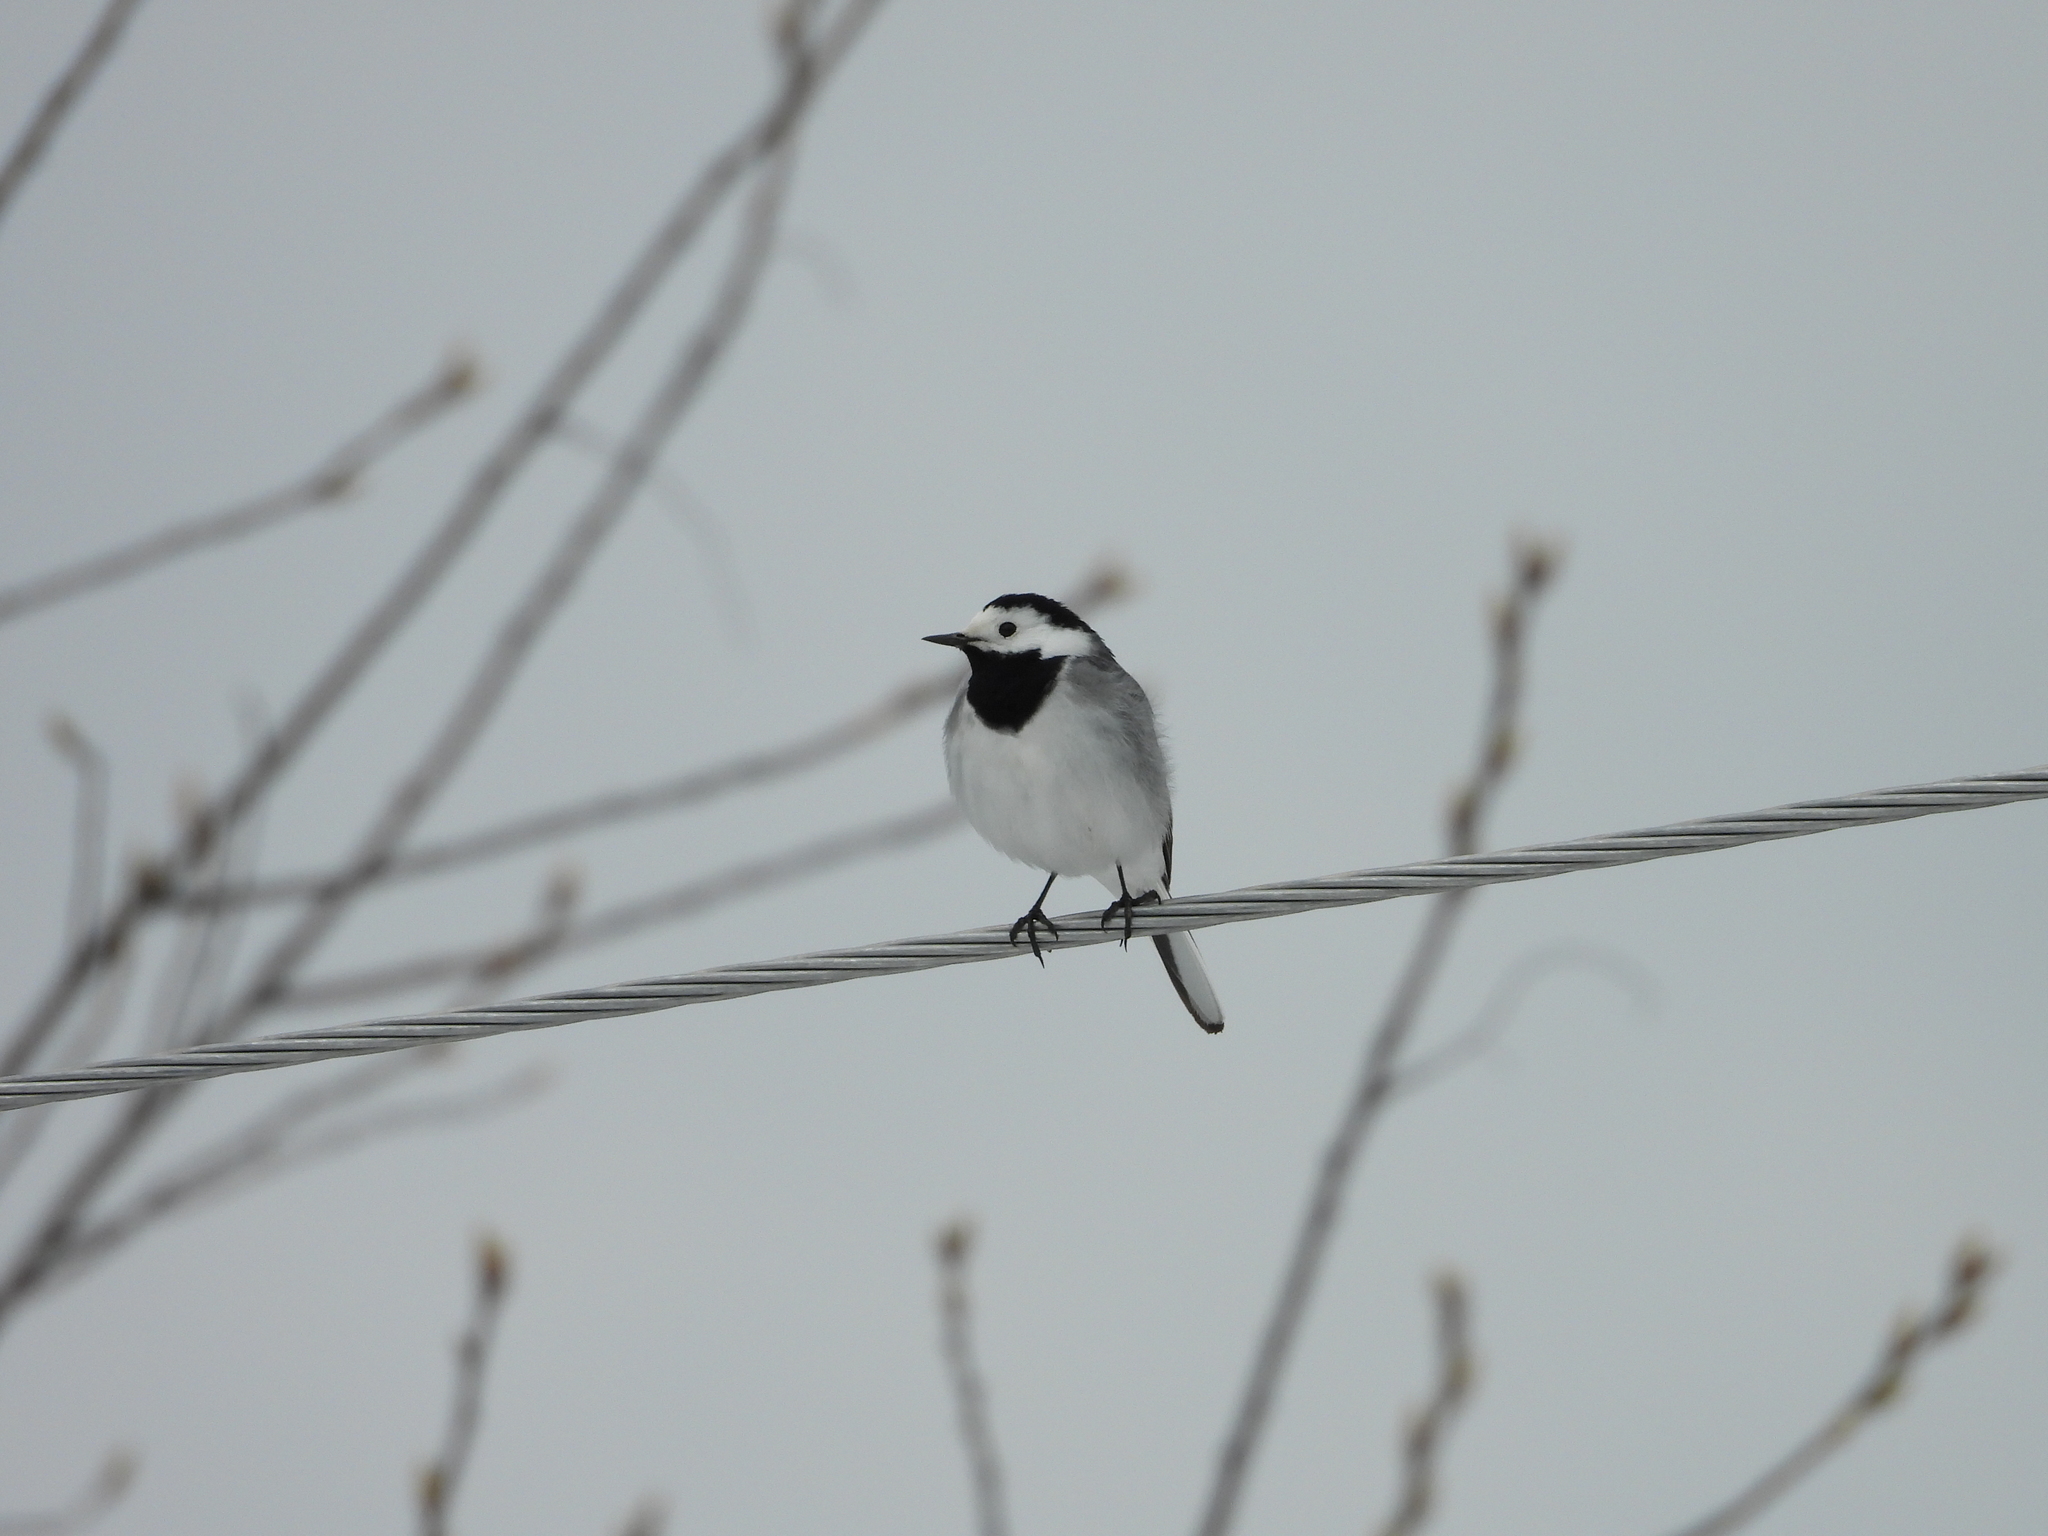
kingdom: Animalia
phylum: Chordata
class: Aves
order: Passeriformes
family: Motacillidae
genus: Motacilla
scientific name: Motacilla alba
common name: White wagtail
